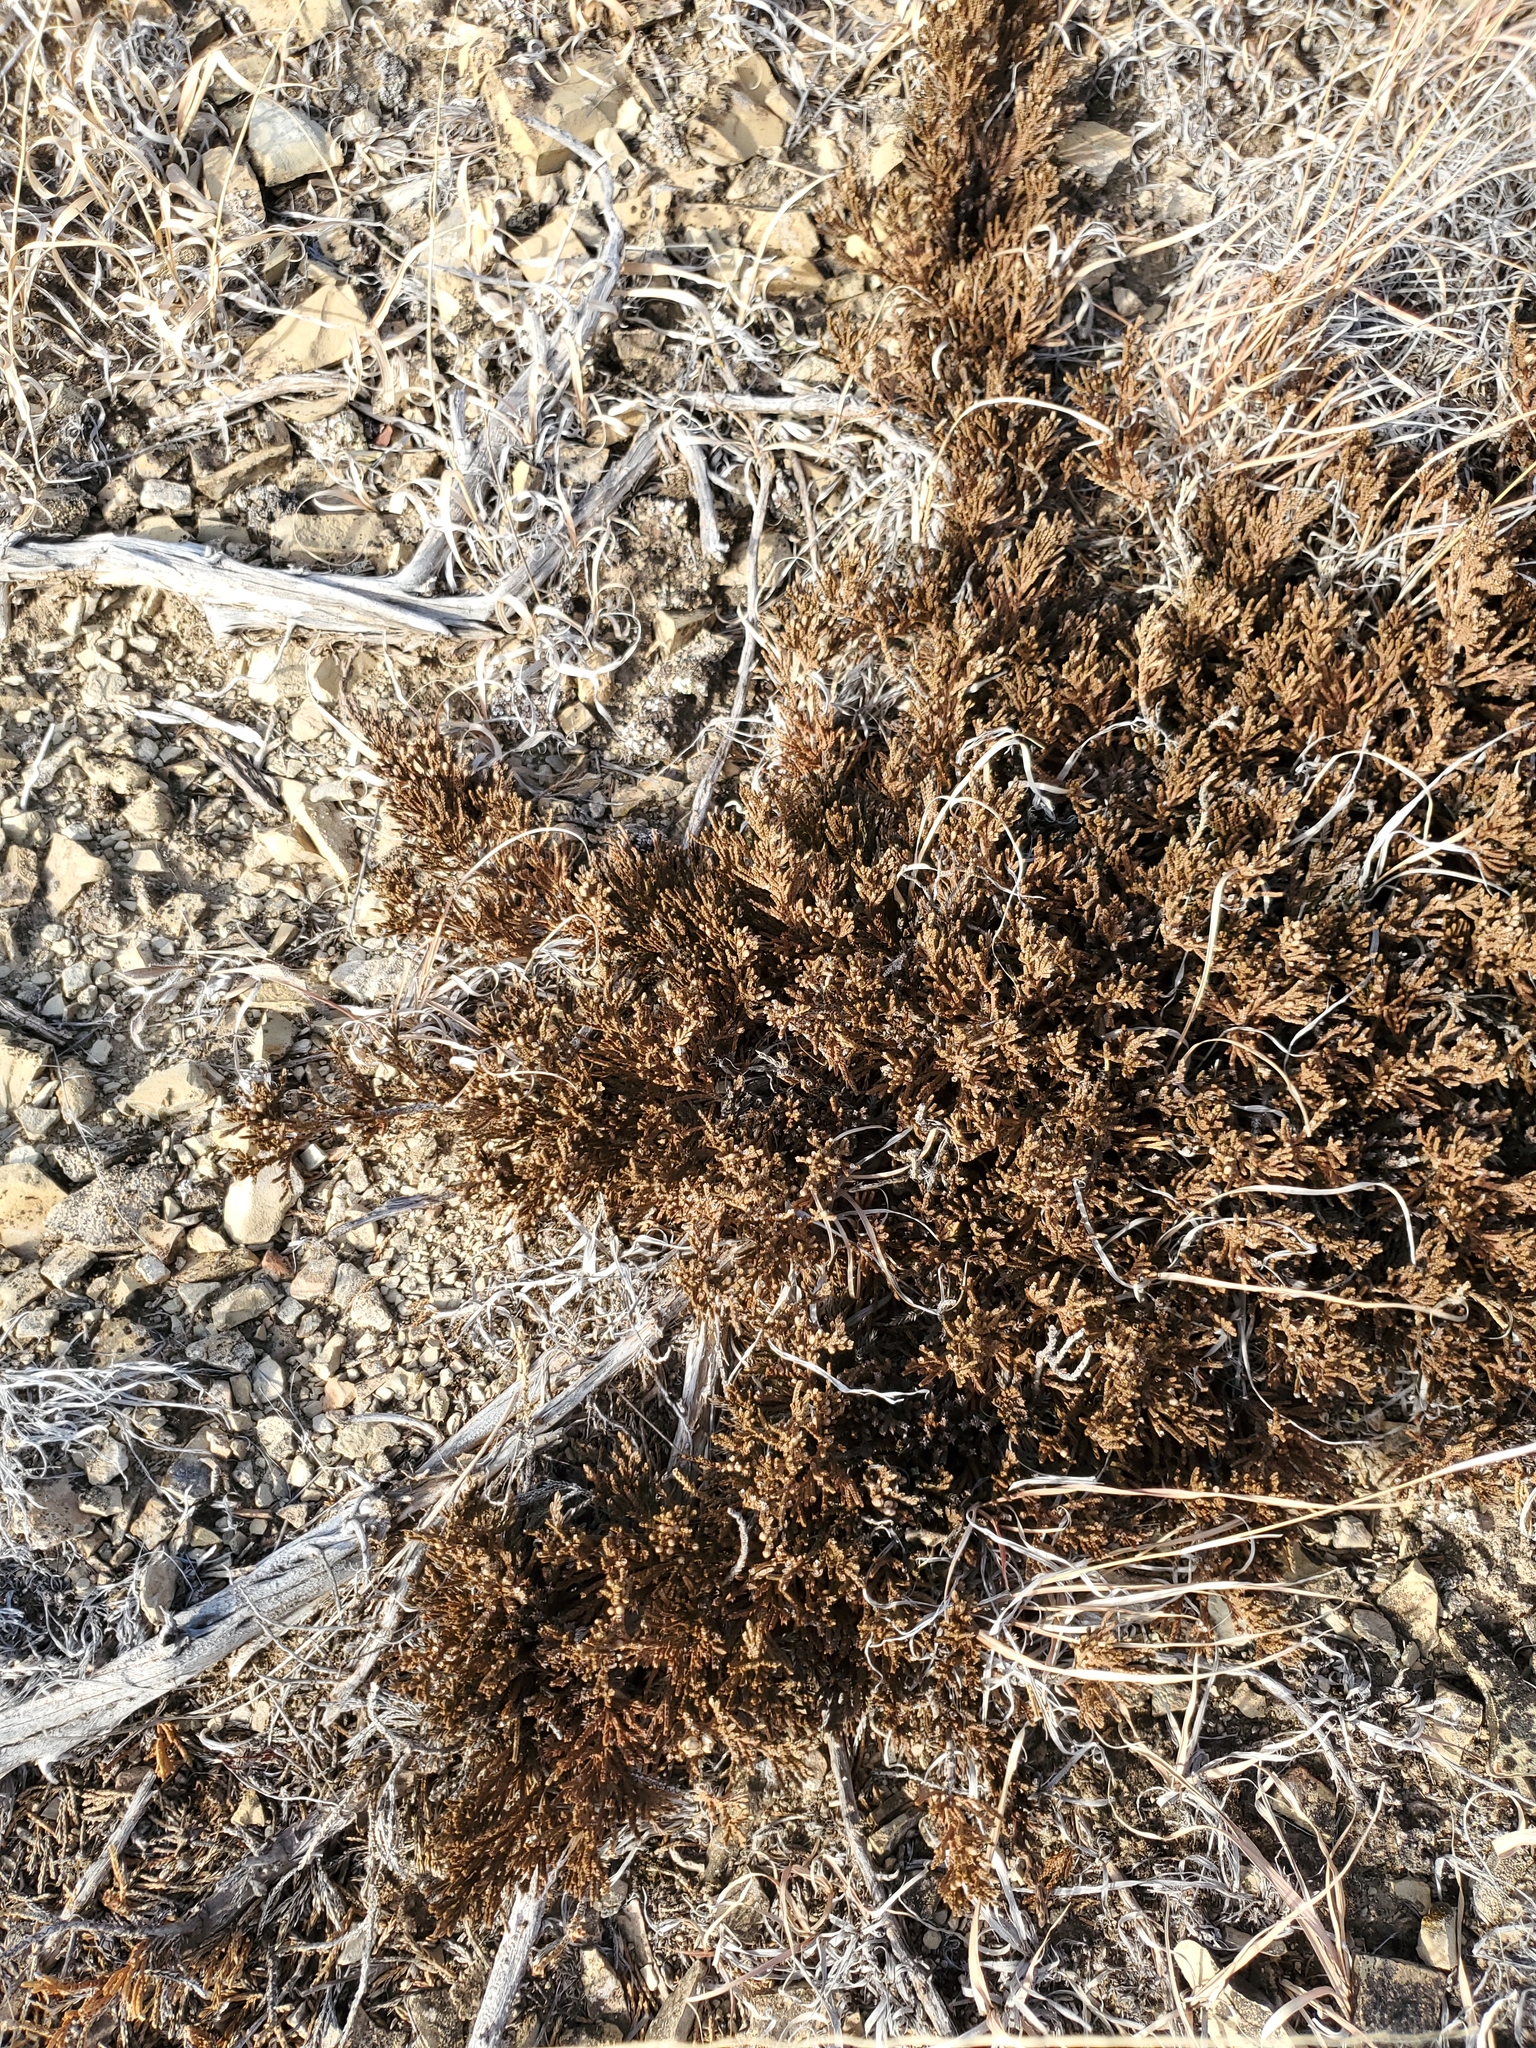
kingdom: Plantae
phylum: Tracheophyta
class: Pinopsida
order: Pinales
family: Cupressaceae
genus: Juniperus
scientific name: Juniperus horizontalis
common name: Creeping juniper
